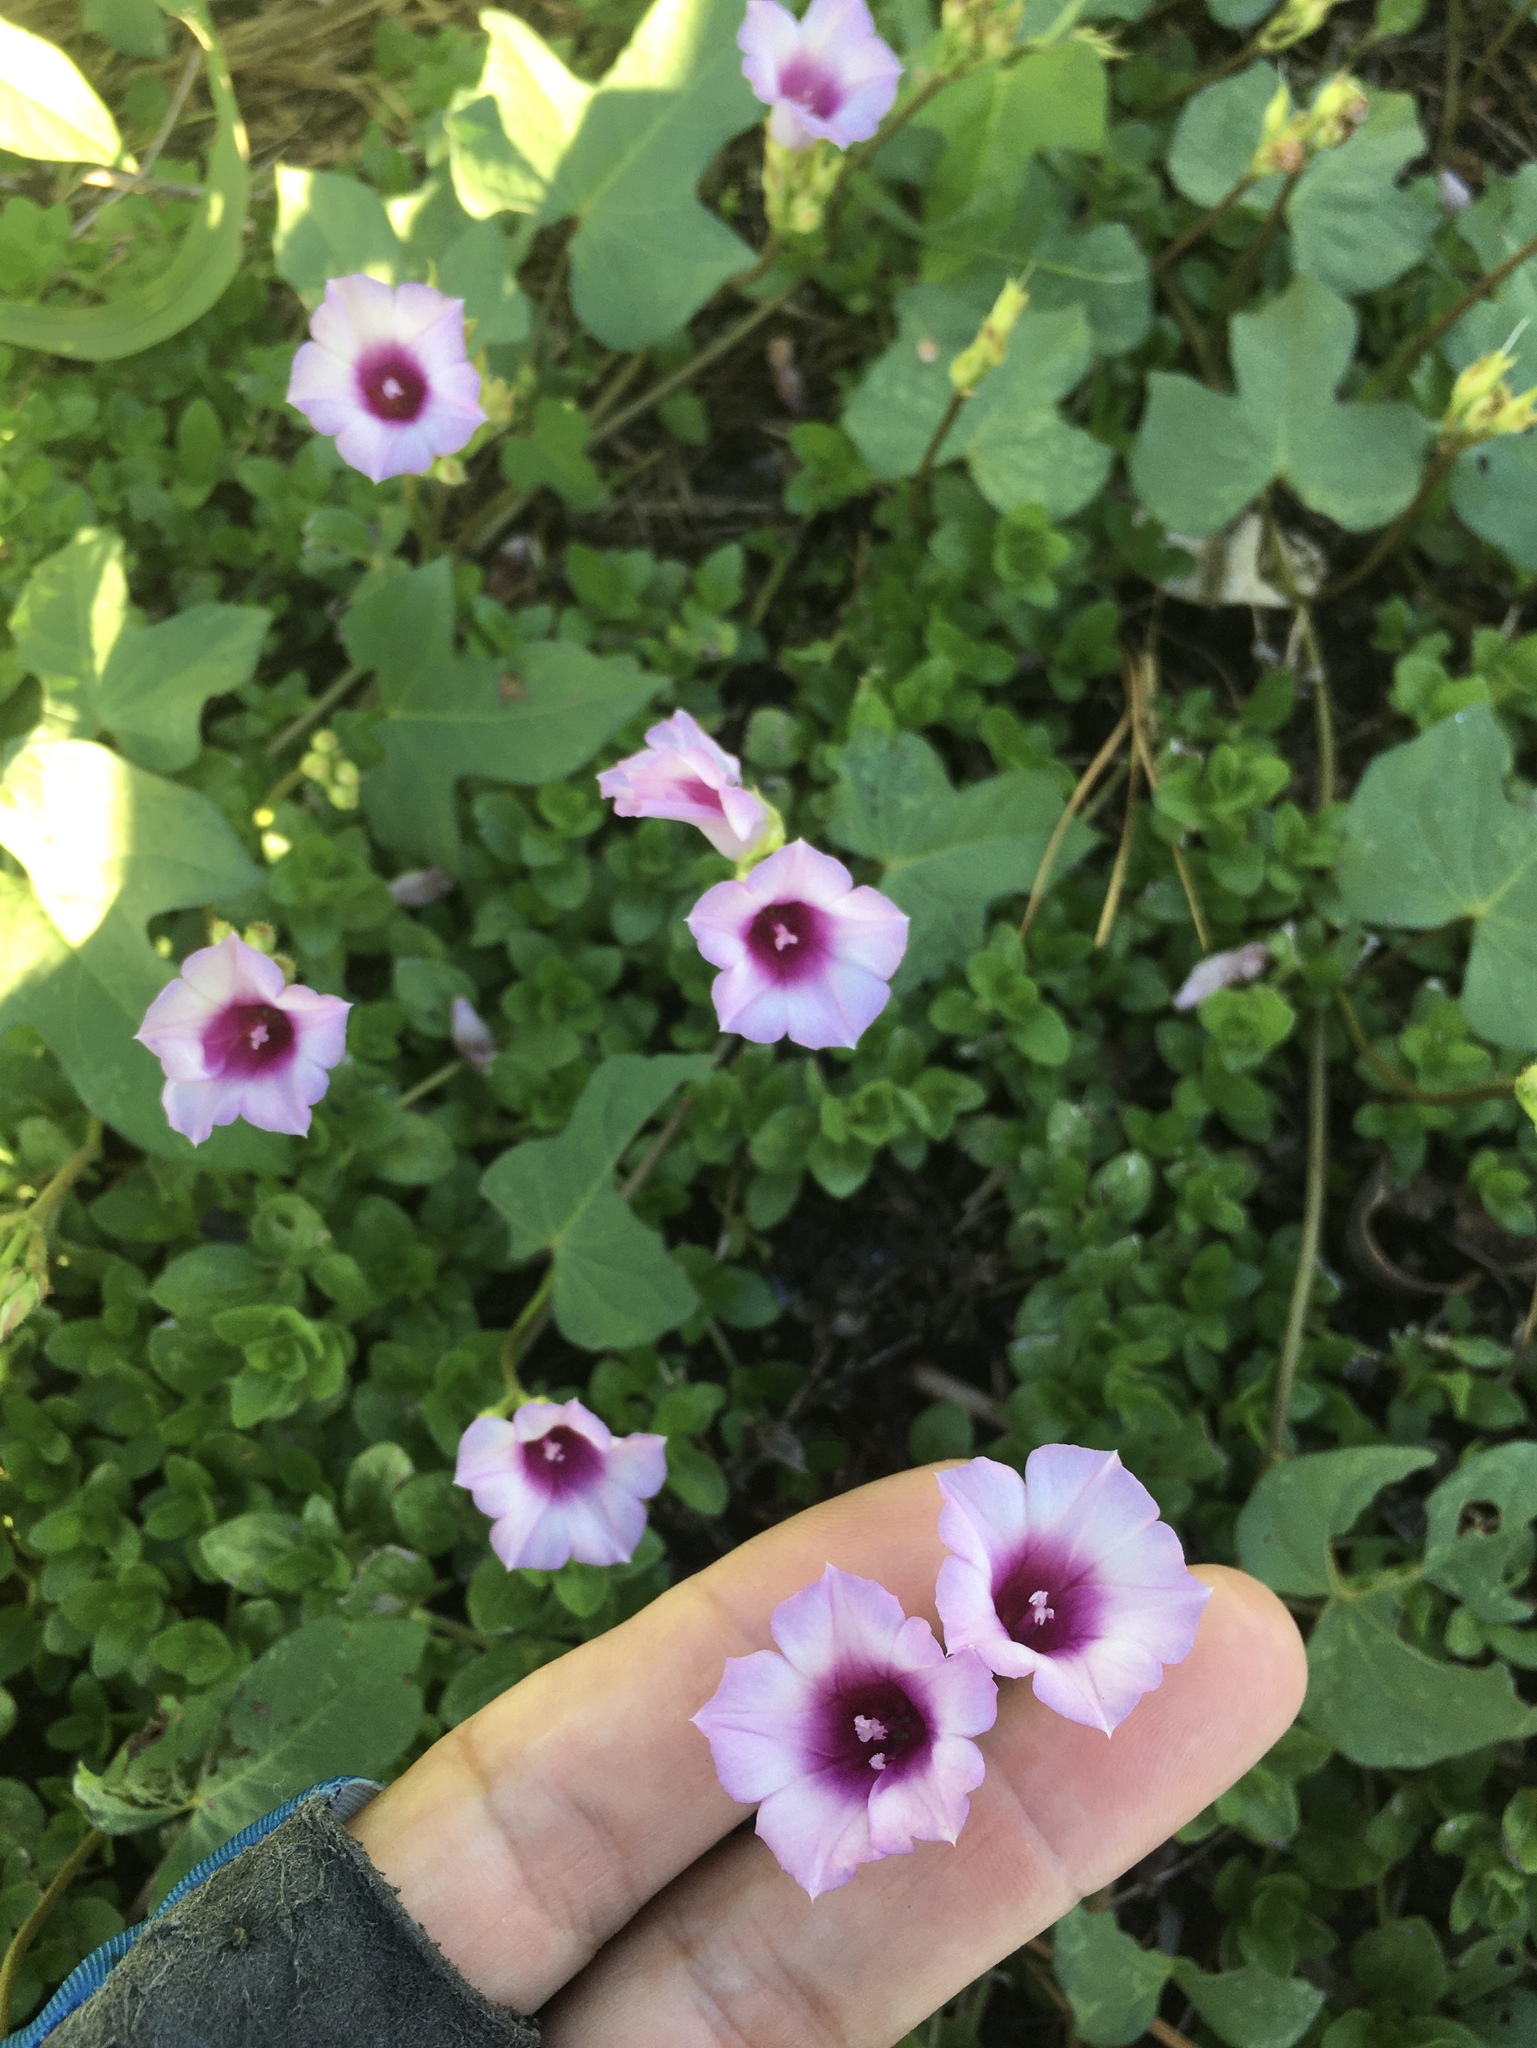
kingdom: Plantae
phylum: Tracheophyta
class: Magnoliopsida
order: Solanales
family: Convolvulaceae
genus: Ipomoea
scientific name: Ipomoea triloba
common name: Little-bell
